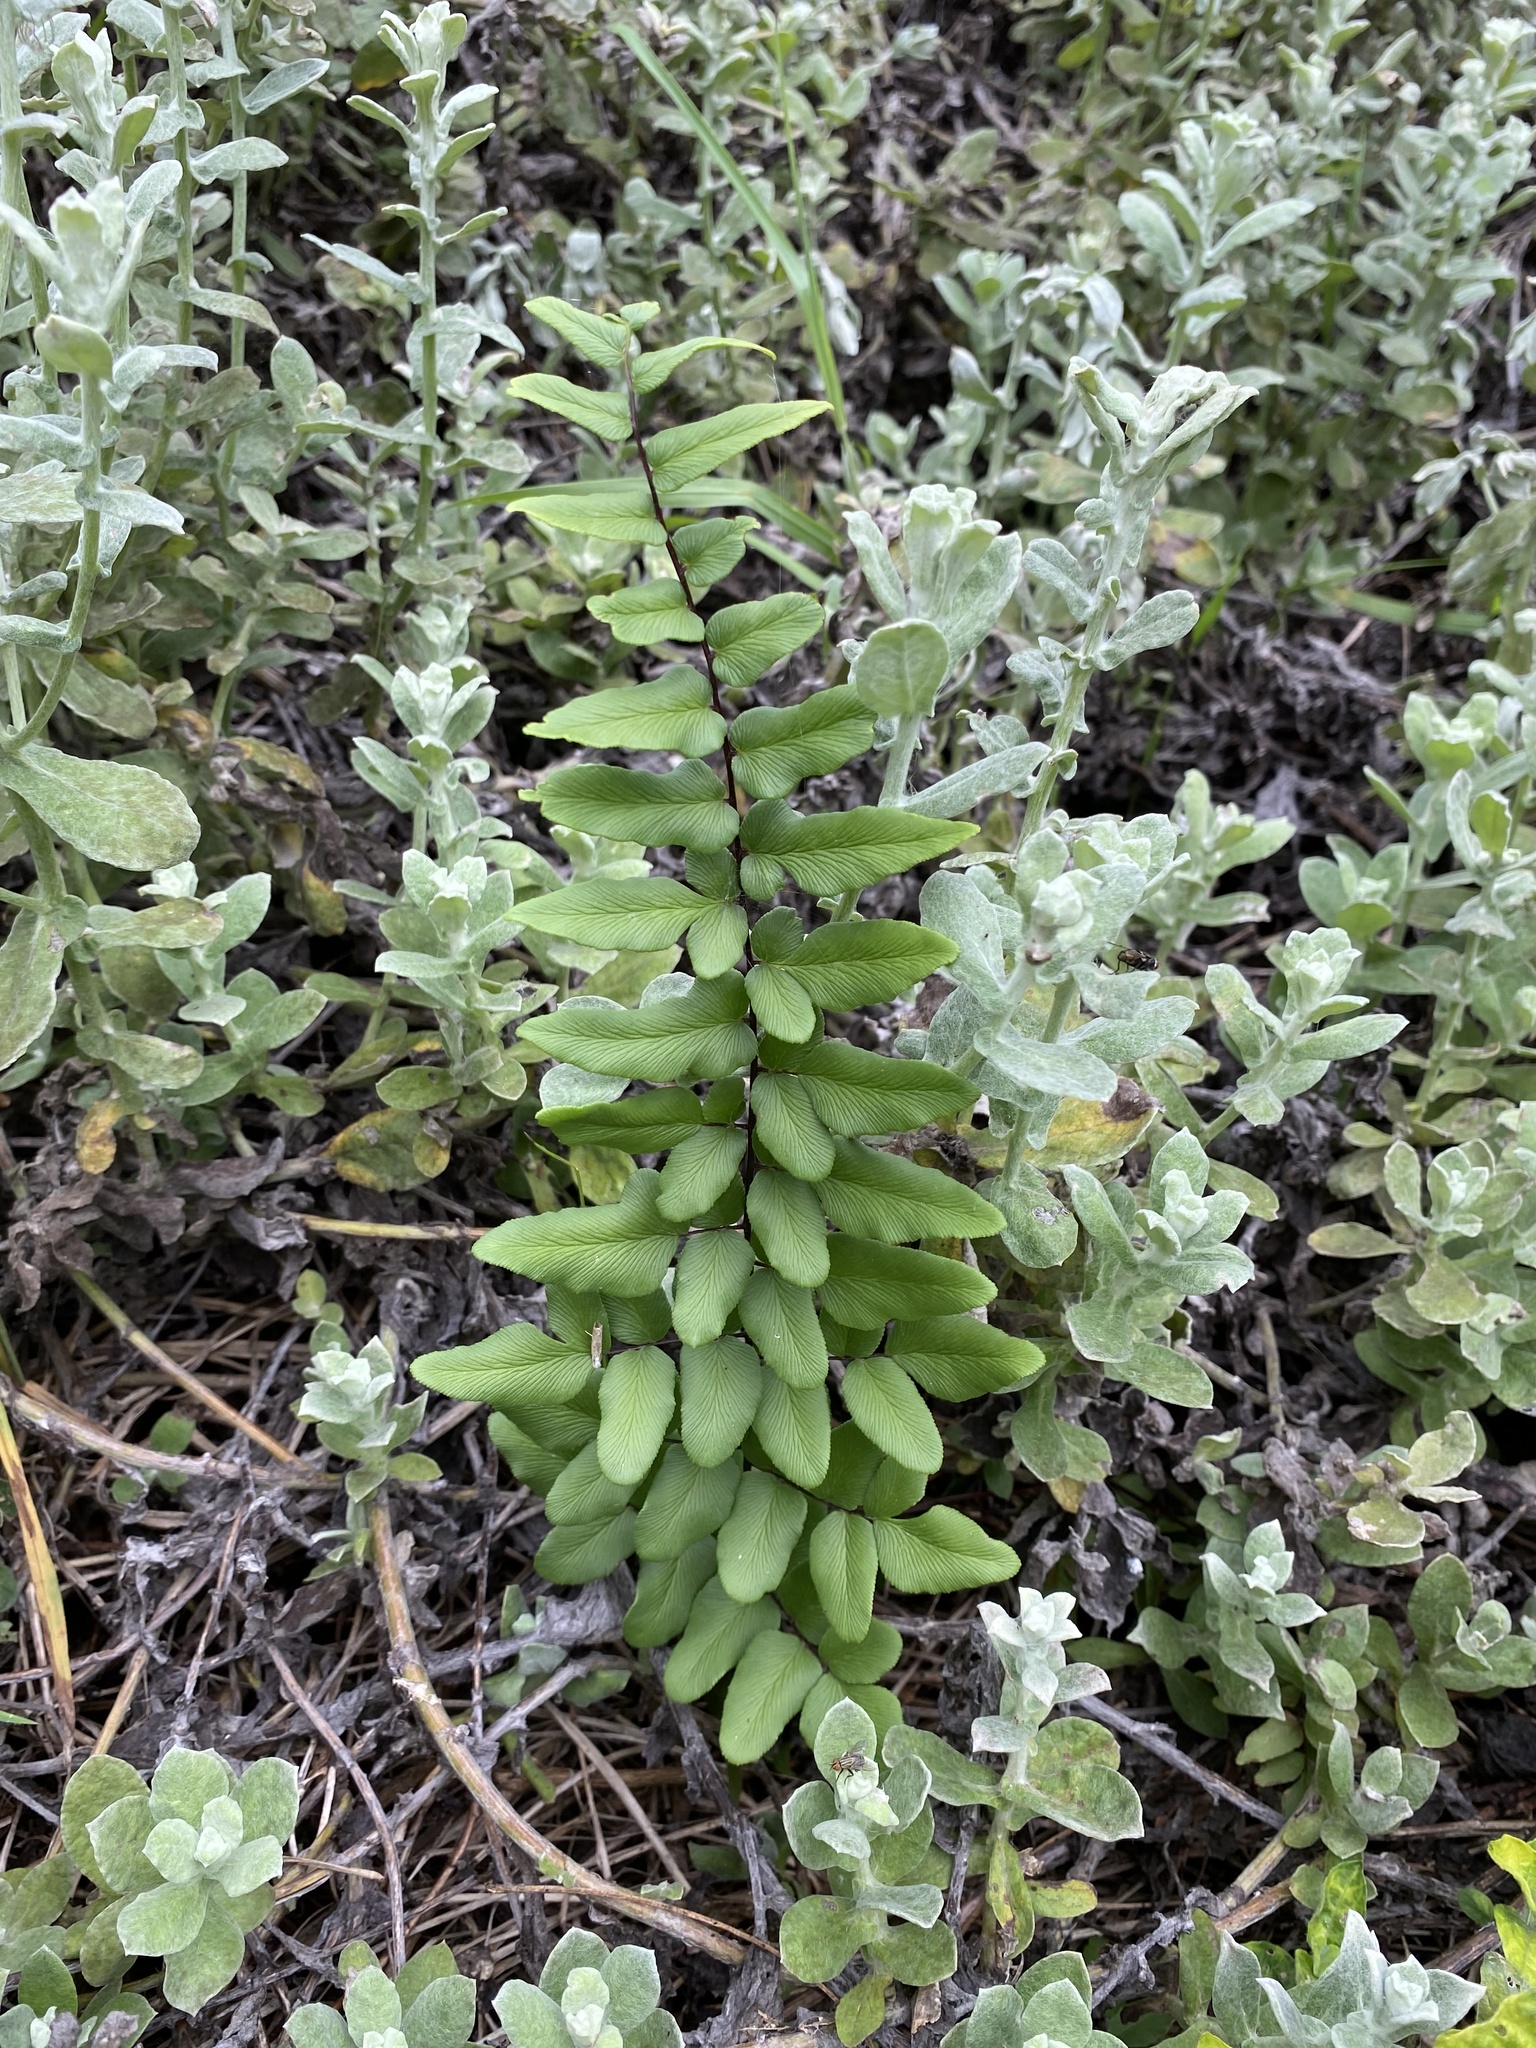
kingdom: Plantae
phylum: Tracheophyta
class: Polypodiopsida
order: Polypodiales
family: Pteridaceae
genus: Cheilanthes
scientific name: Cheilanthes viridis
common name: Green cliffbrake
